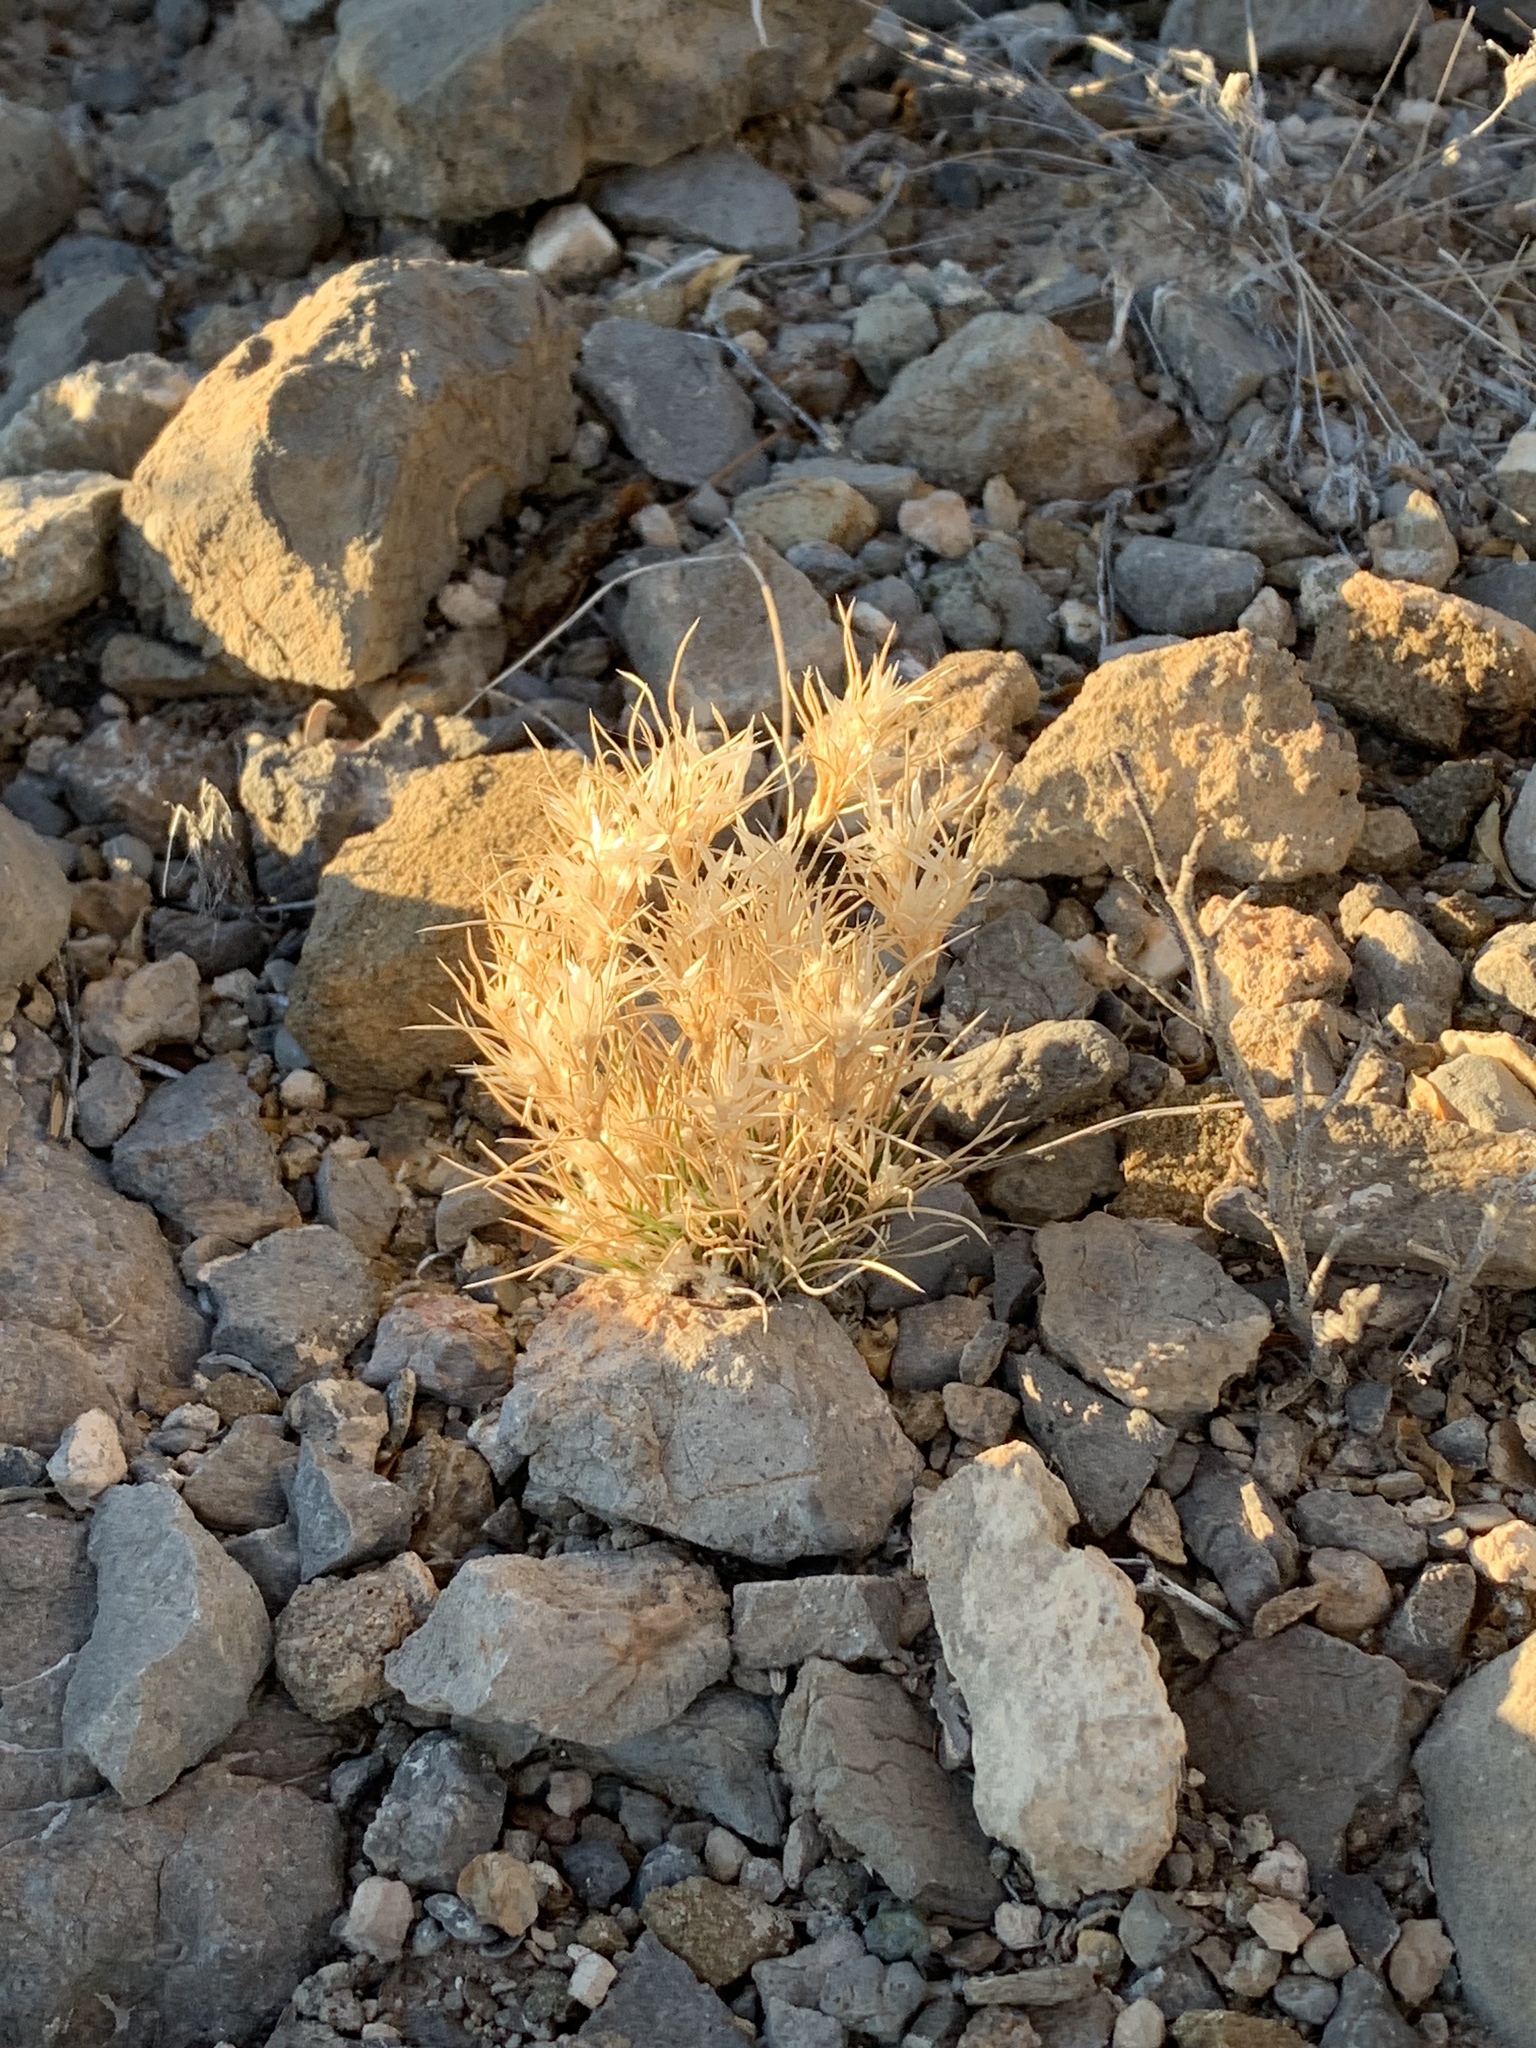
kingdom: Plantae
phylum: Tracheophyta
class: Liliopsida
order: Poales
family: Poaceae
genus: Dasyochloa
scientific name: Dasyochloa pulchella
